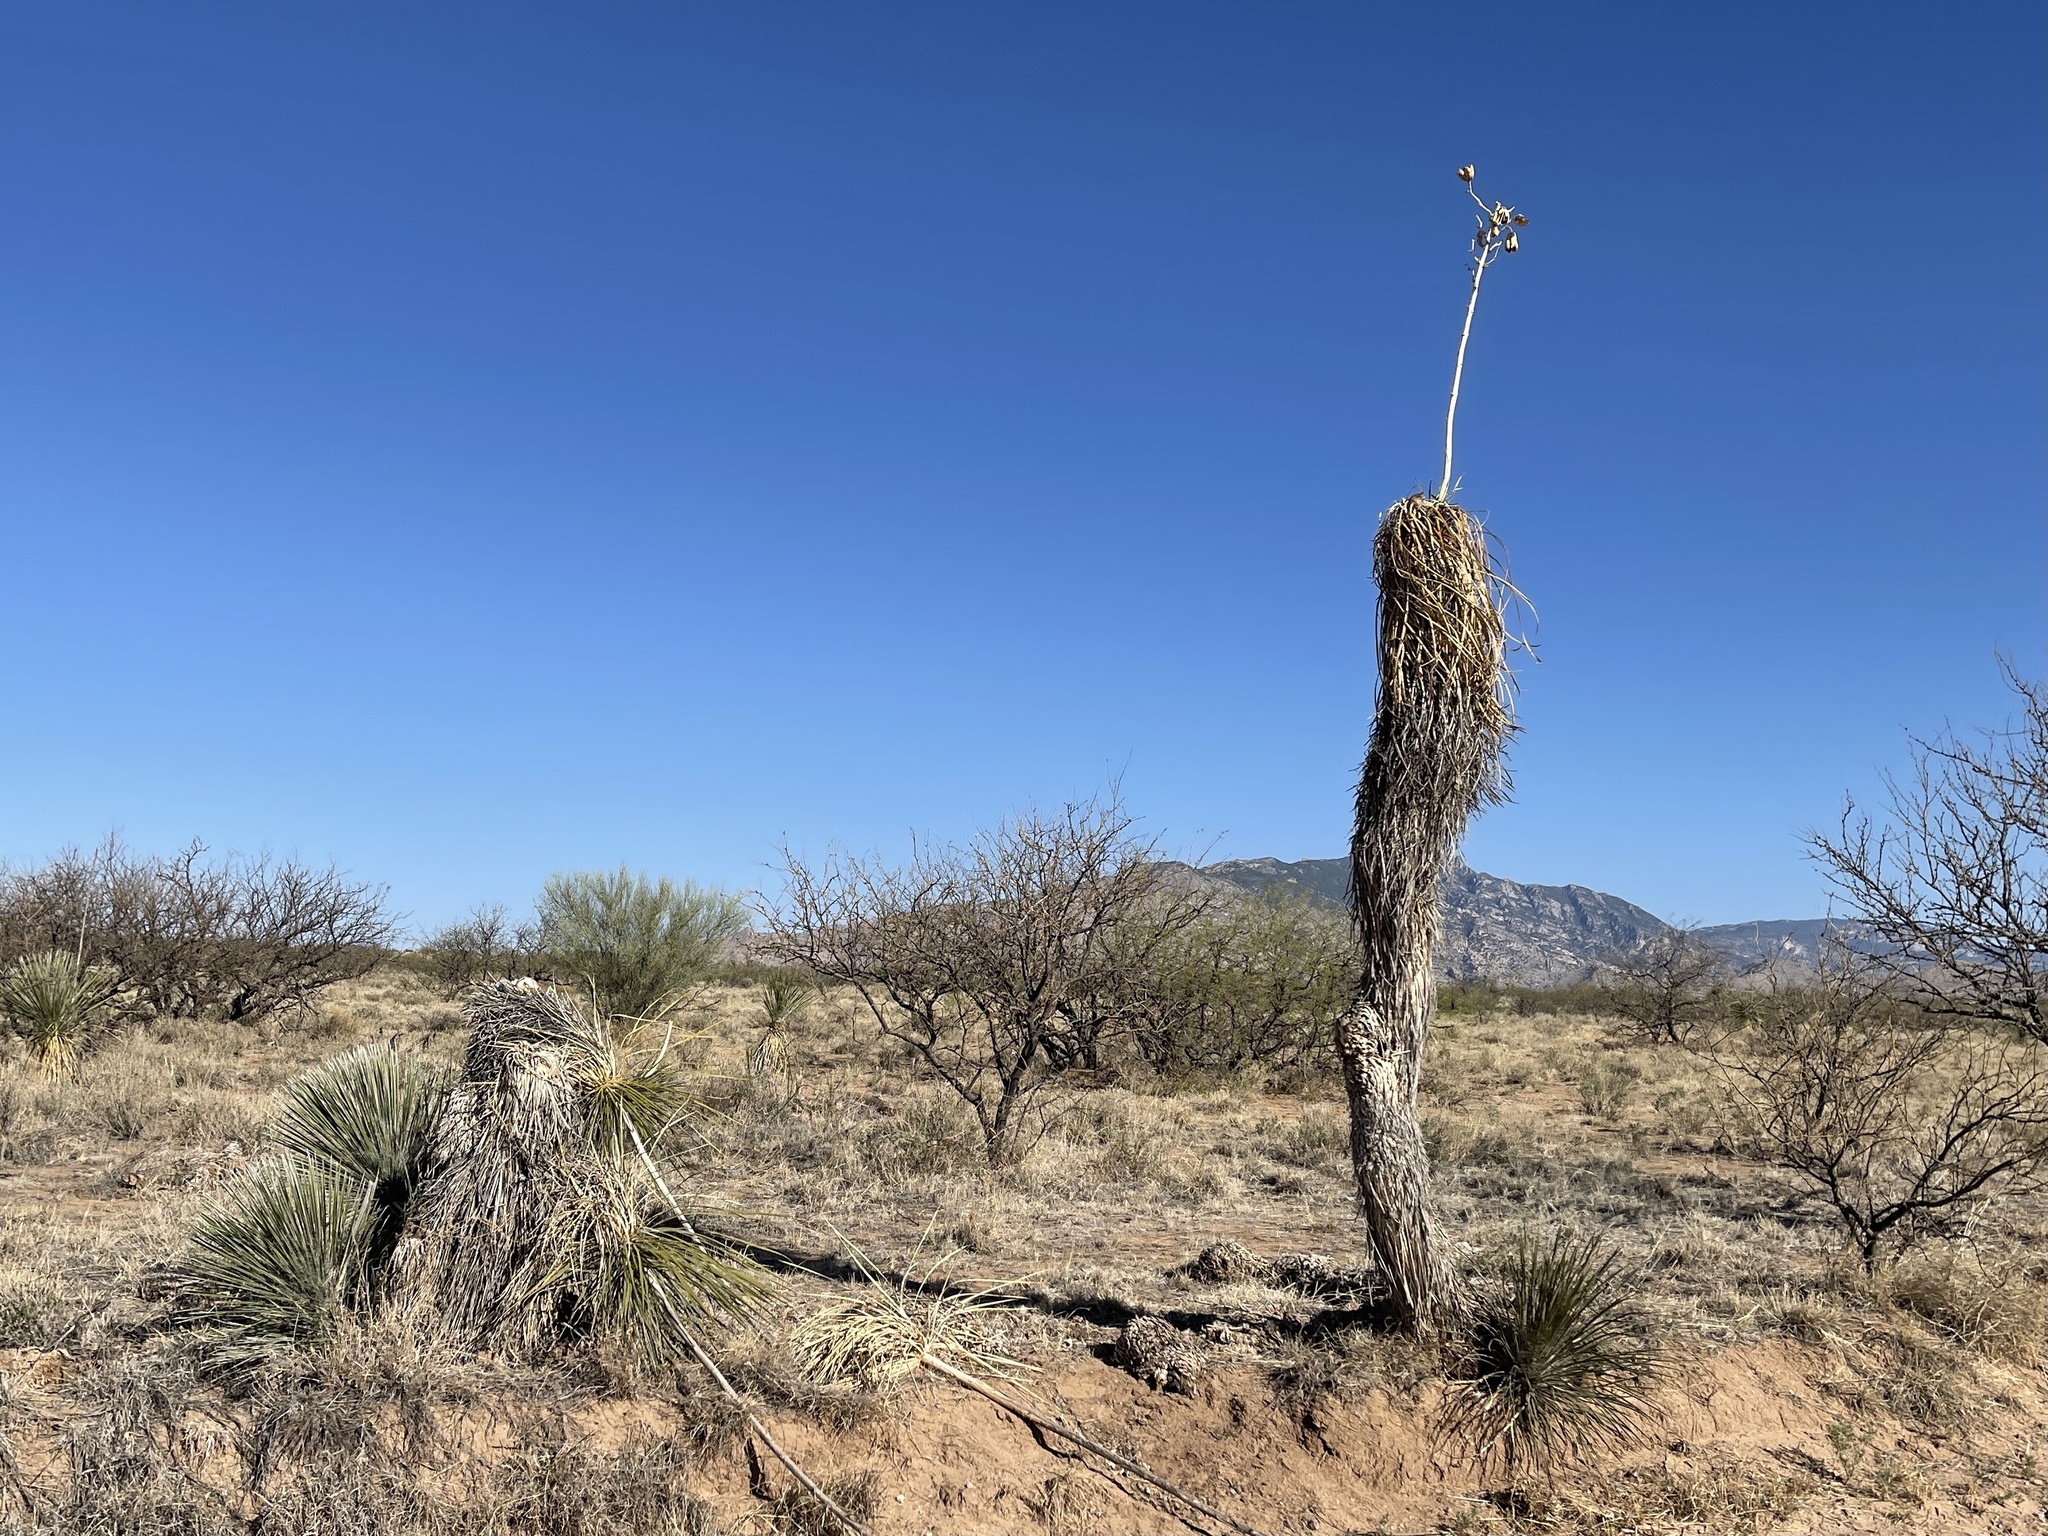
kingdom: Plantae
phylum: Tracheophyta
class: Liliopsida
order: Asparagales
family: Asparagaceae
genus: Yucca
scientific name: Yucca elata
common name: Palmella
